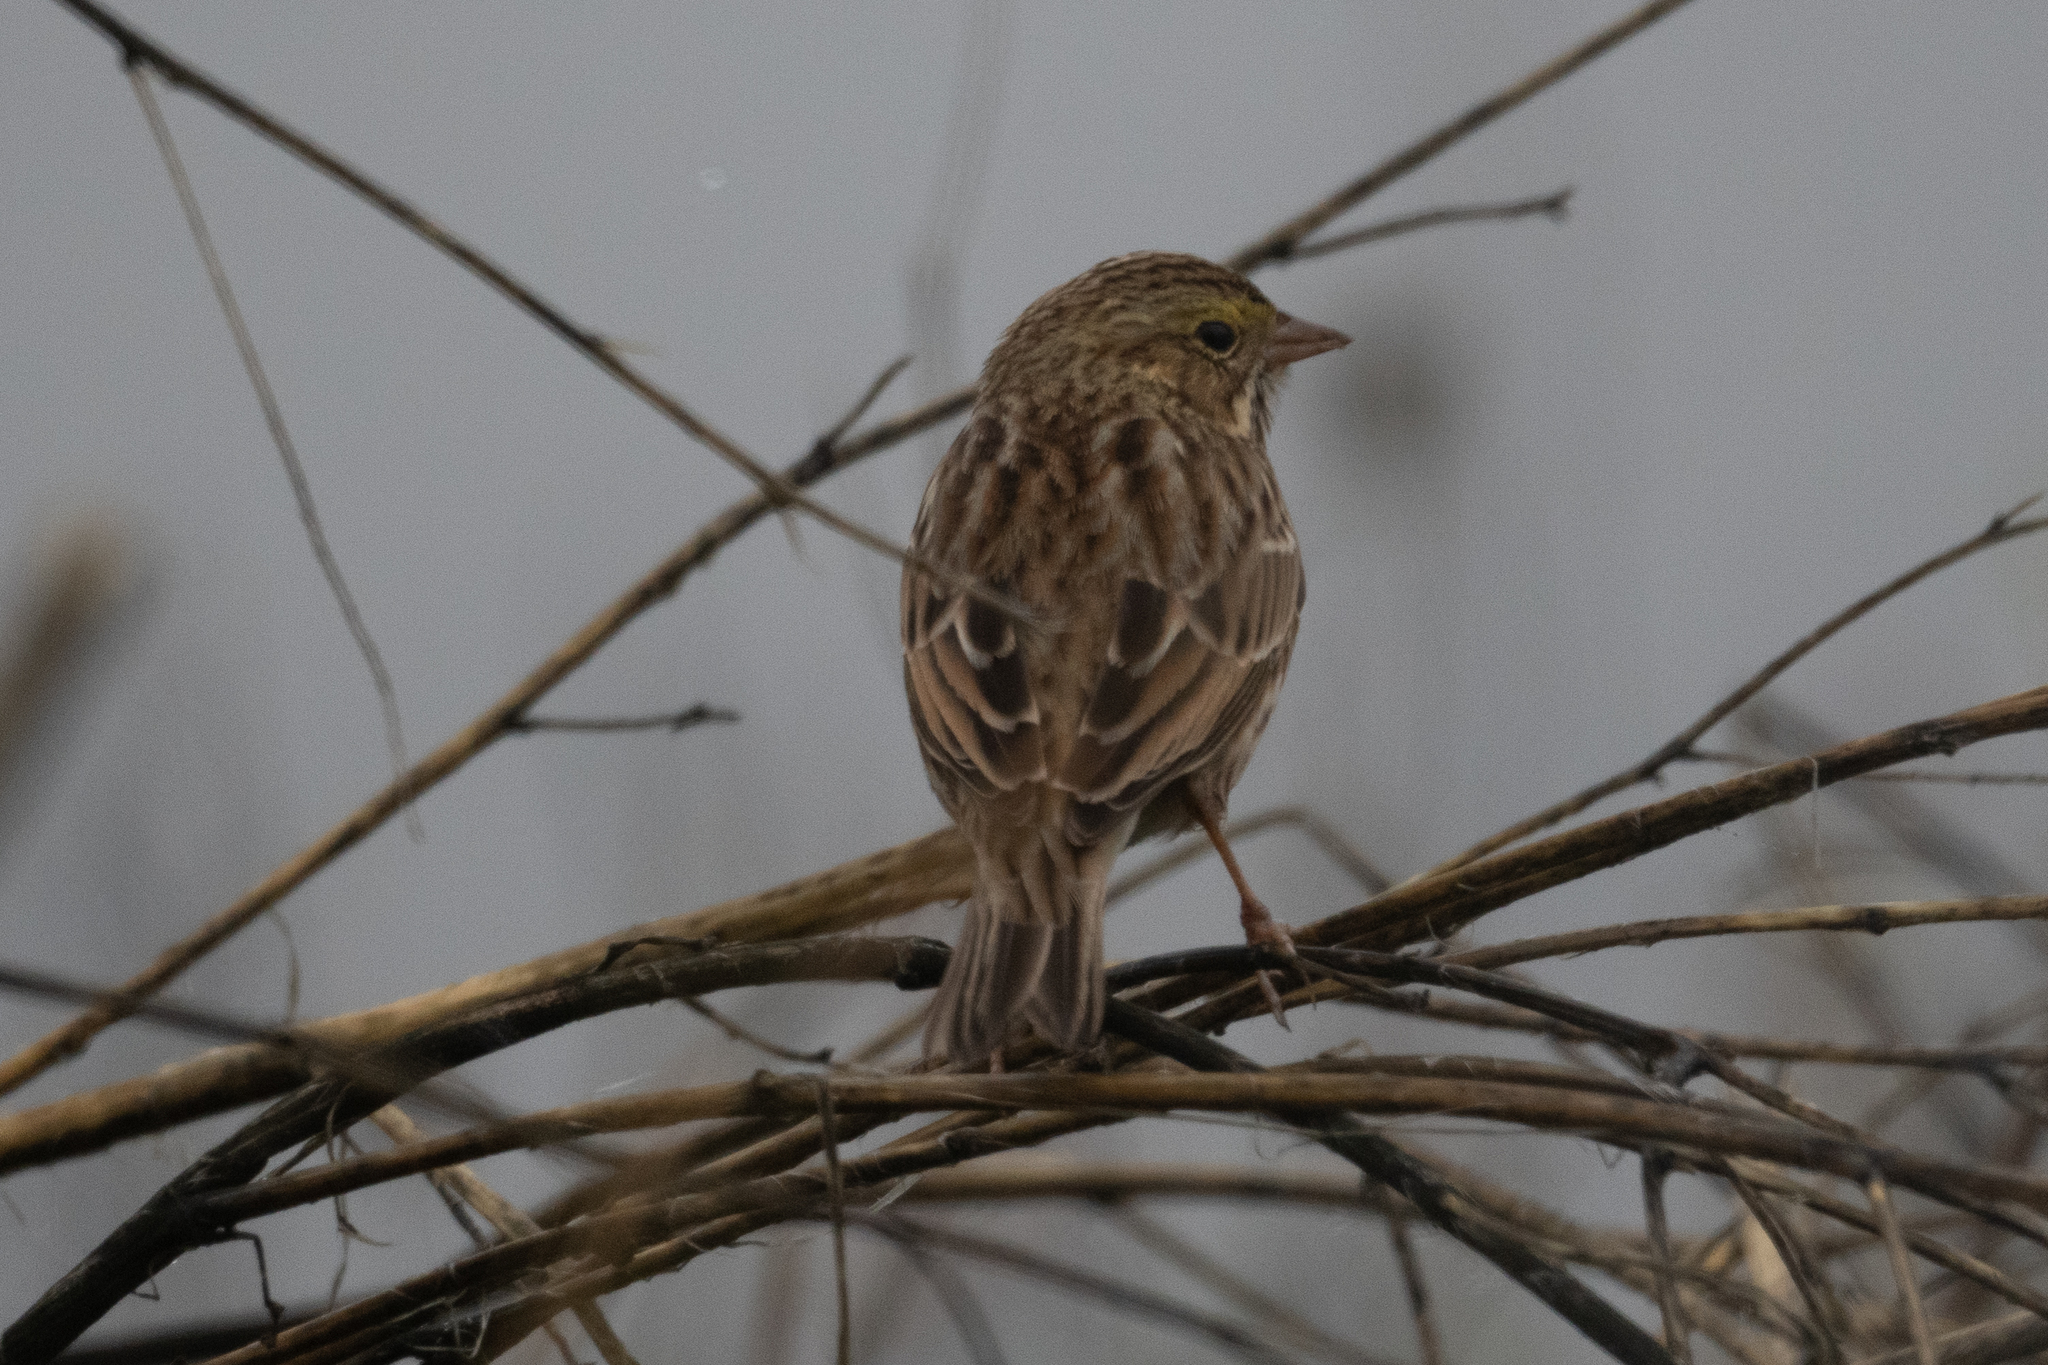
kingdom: Animalia
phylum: Chordata
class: Aves
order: Passeriformes
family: Passerellidae
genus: Passerculus
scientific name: Passerculus sandwichensis
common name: Savannah sparrow
